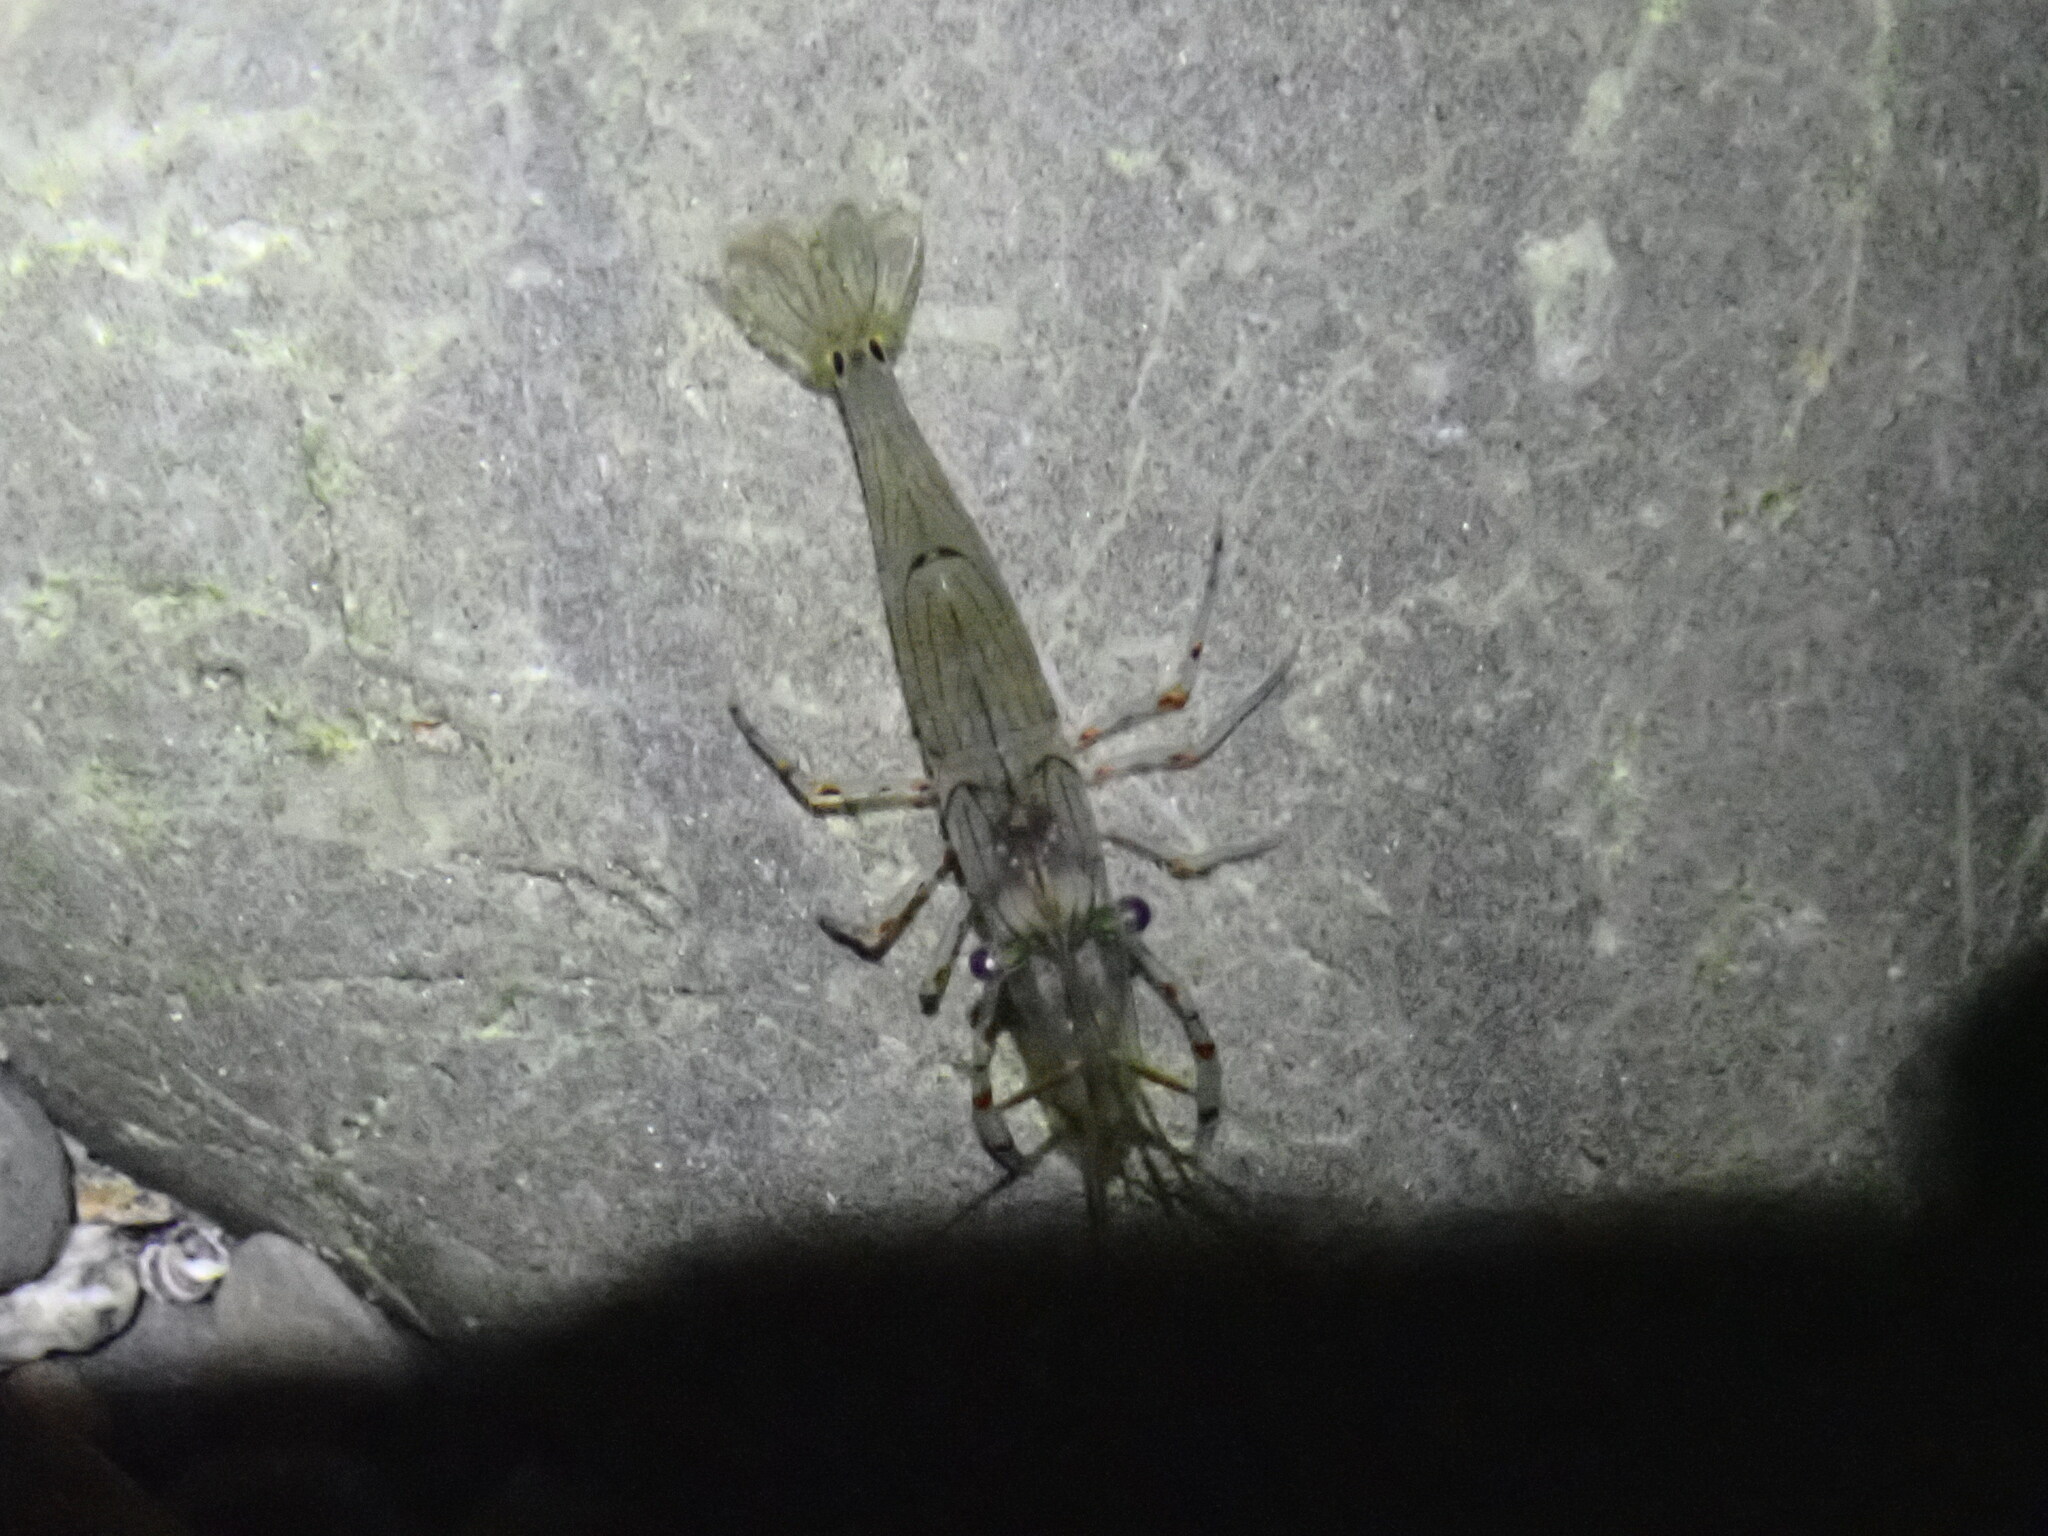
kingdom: Animalia
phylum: Arthropoda
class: Malacostraca
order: Decapoda
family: Palaemonidae
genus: Palaemon
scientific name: Palaemon affinis
